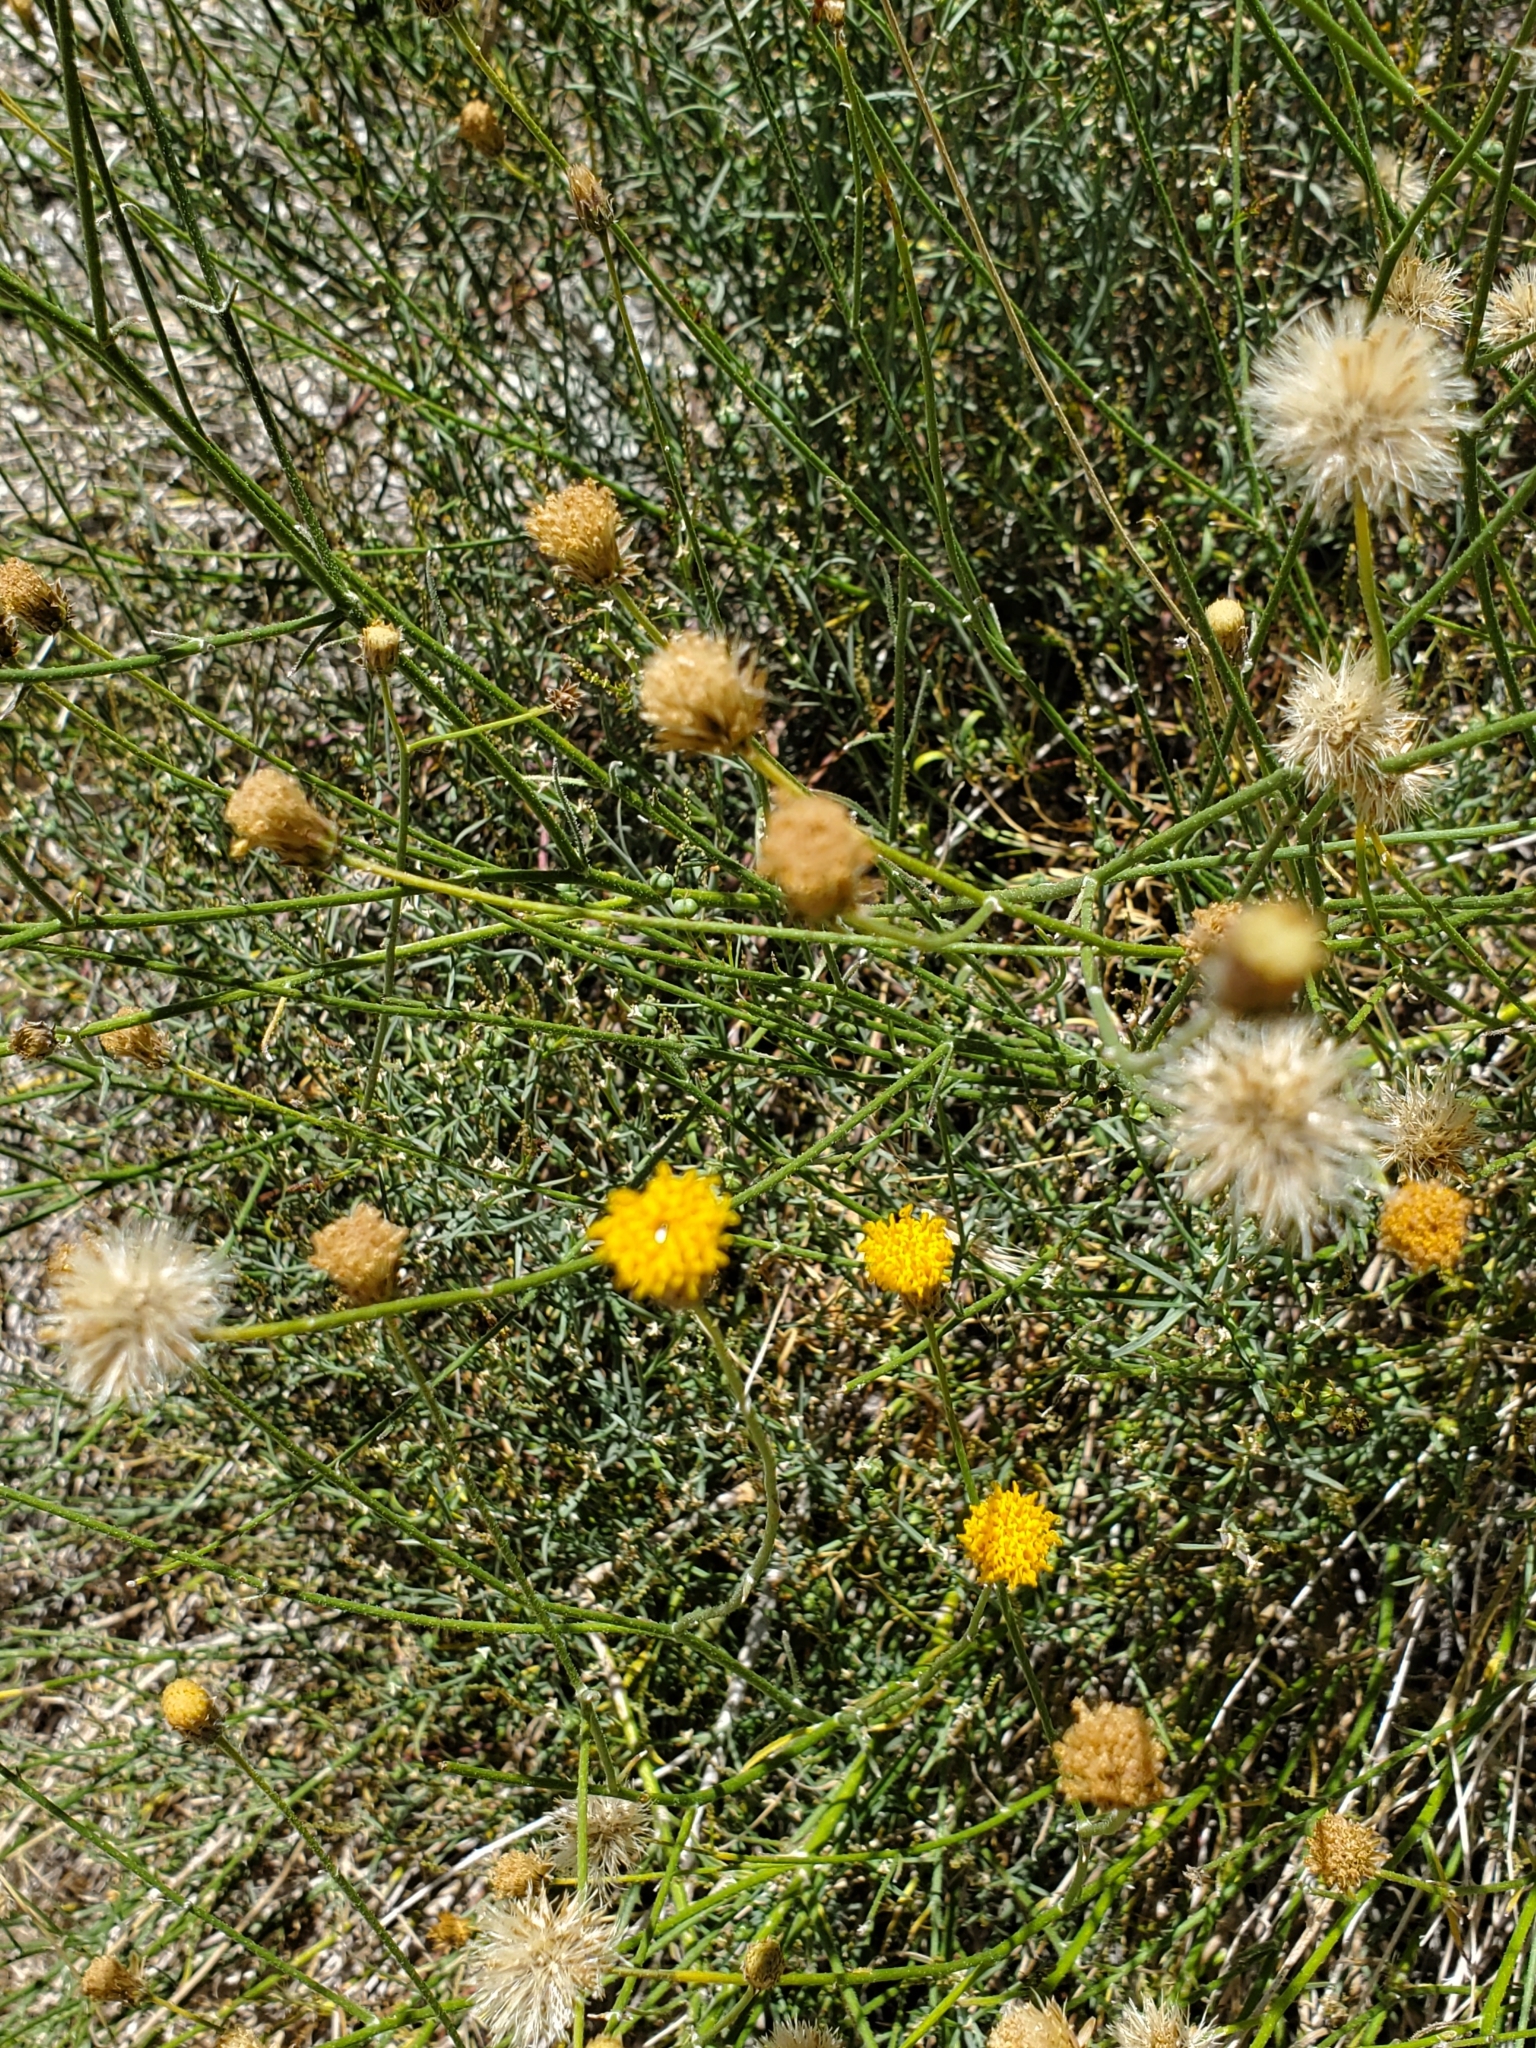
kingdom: Plantae
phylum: Tracheophyta
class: Magnoliopsida
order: Asterales
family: Asteraceae
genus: Bebbia
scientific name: Bebbia juncea
